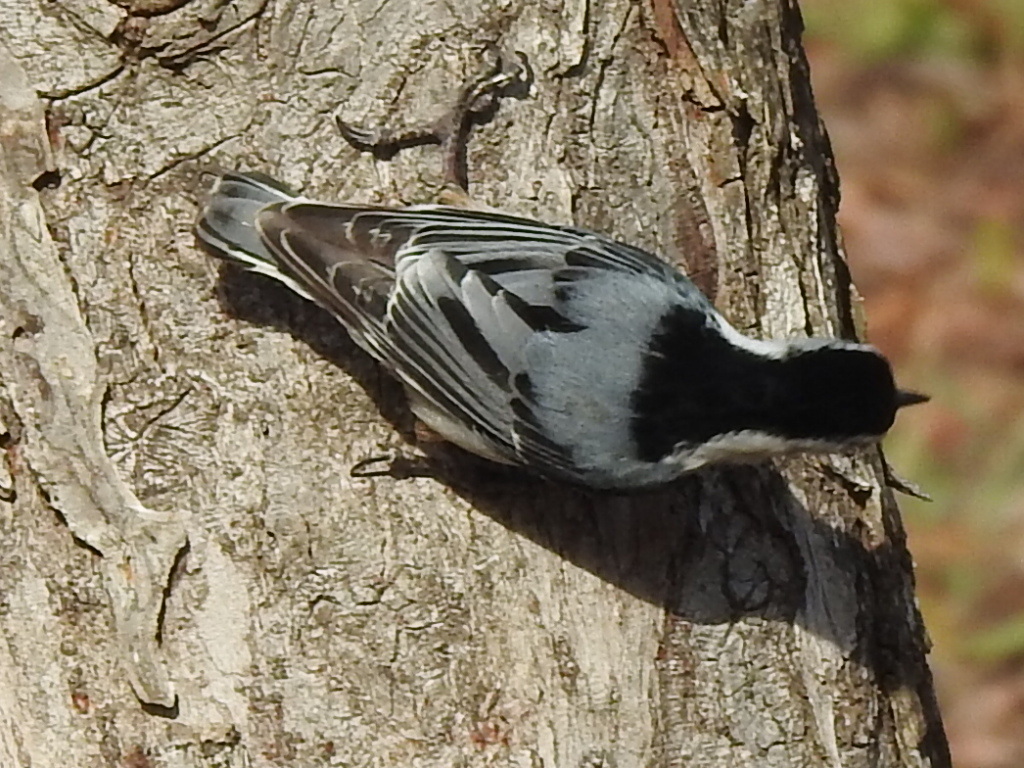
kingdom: Animalia
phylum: Chordata
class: Aves
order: Passeriformes
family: Sittidae
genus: Sitta
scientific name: Sitta carolinensis
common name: White-breasted nuthatch
